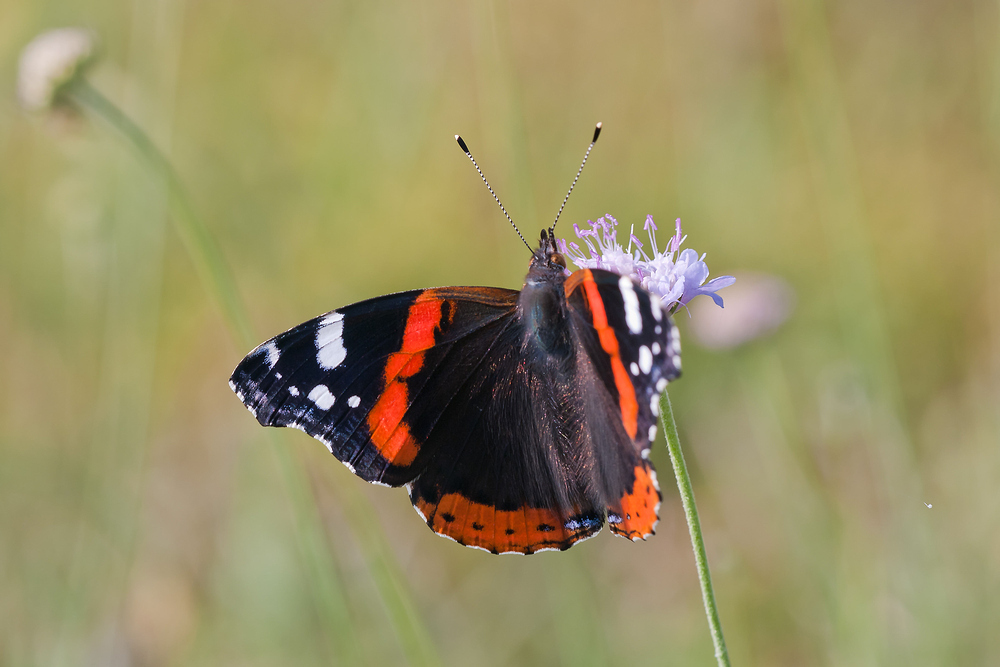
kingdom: Animalia
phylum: Arthropoda
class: Insecta
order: Lepidoptera
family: Nymphalidae
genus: Vanessa
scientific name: Vanessa atalanta
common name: Red admiral
